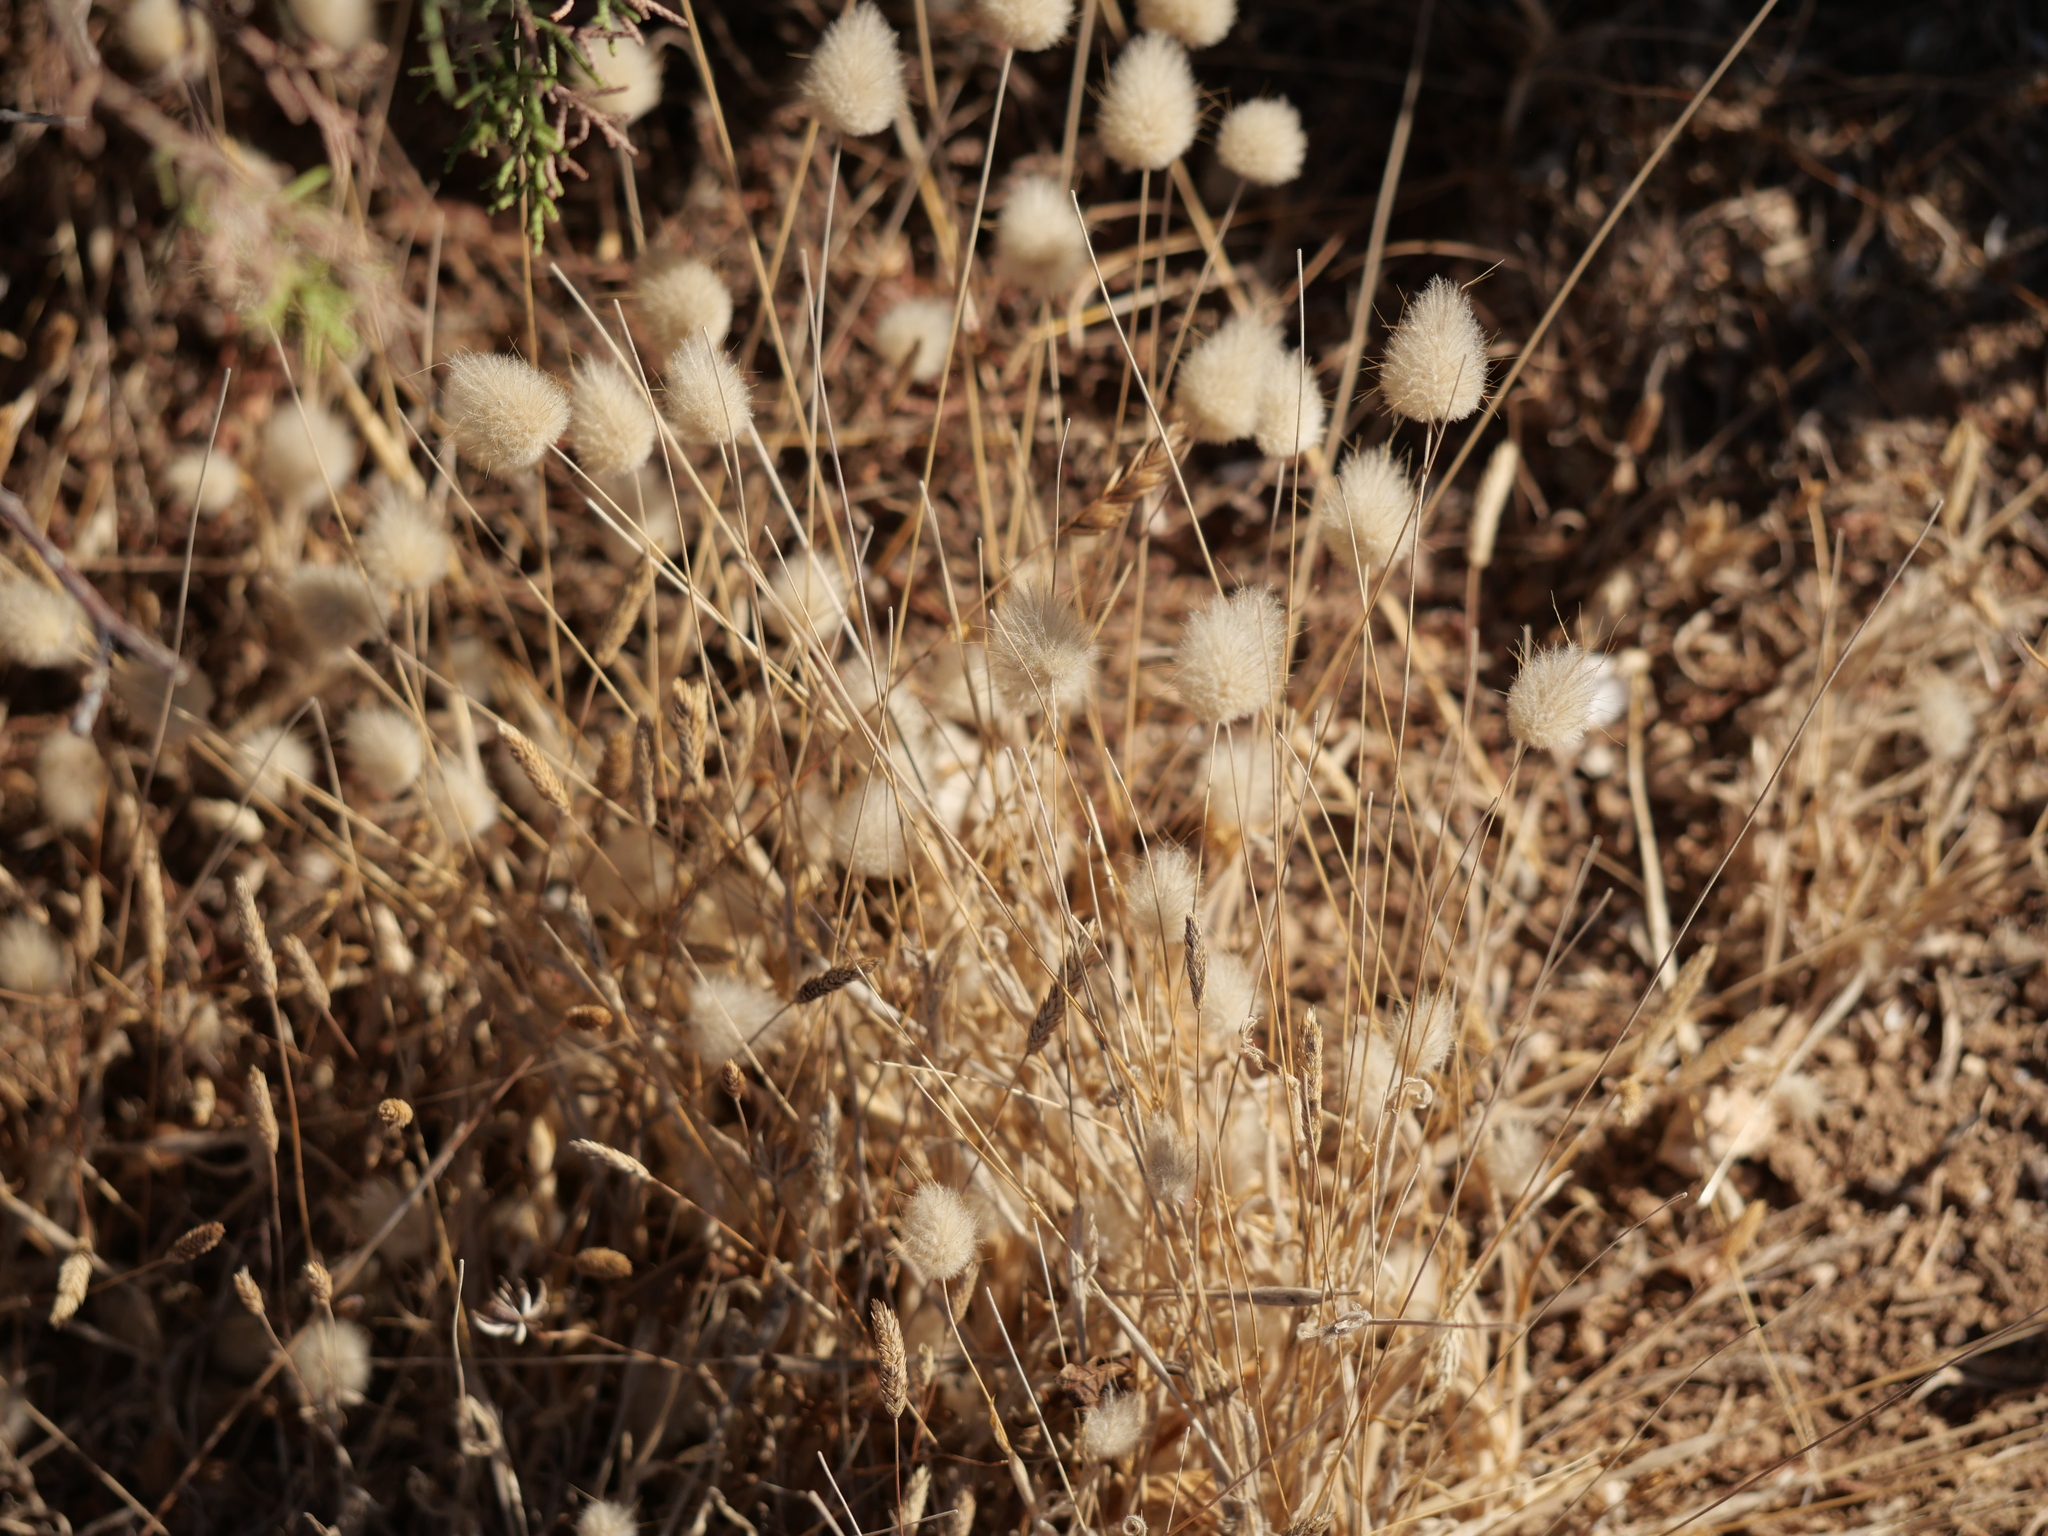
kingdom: Plantae
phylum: Tracheophyta
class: Liliopsida
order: Poales
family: Poaceae
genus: Lagurus
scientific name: Lagurus ovatus
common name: Hare's-tail
